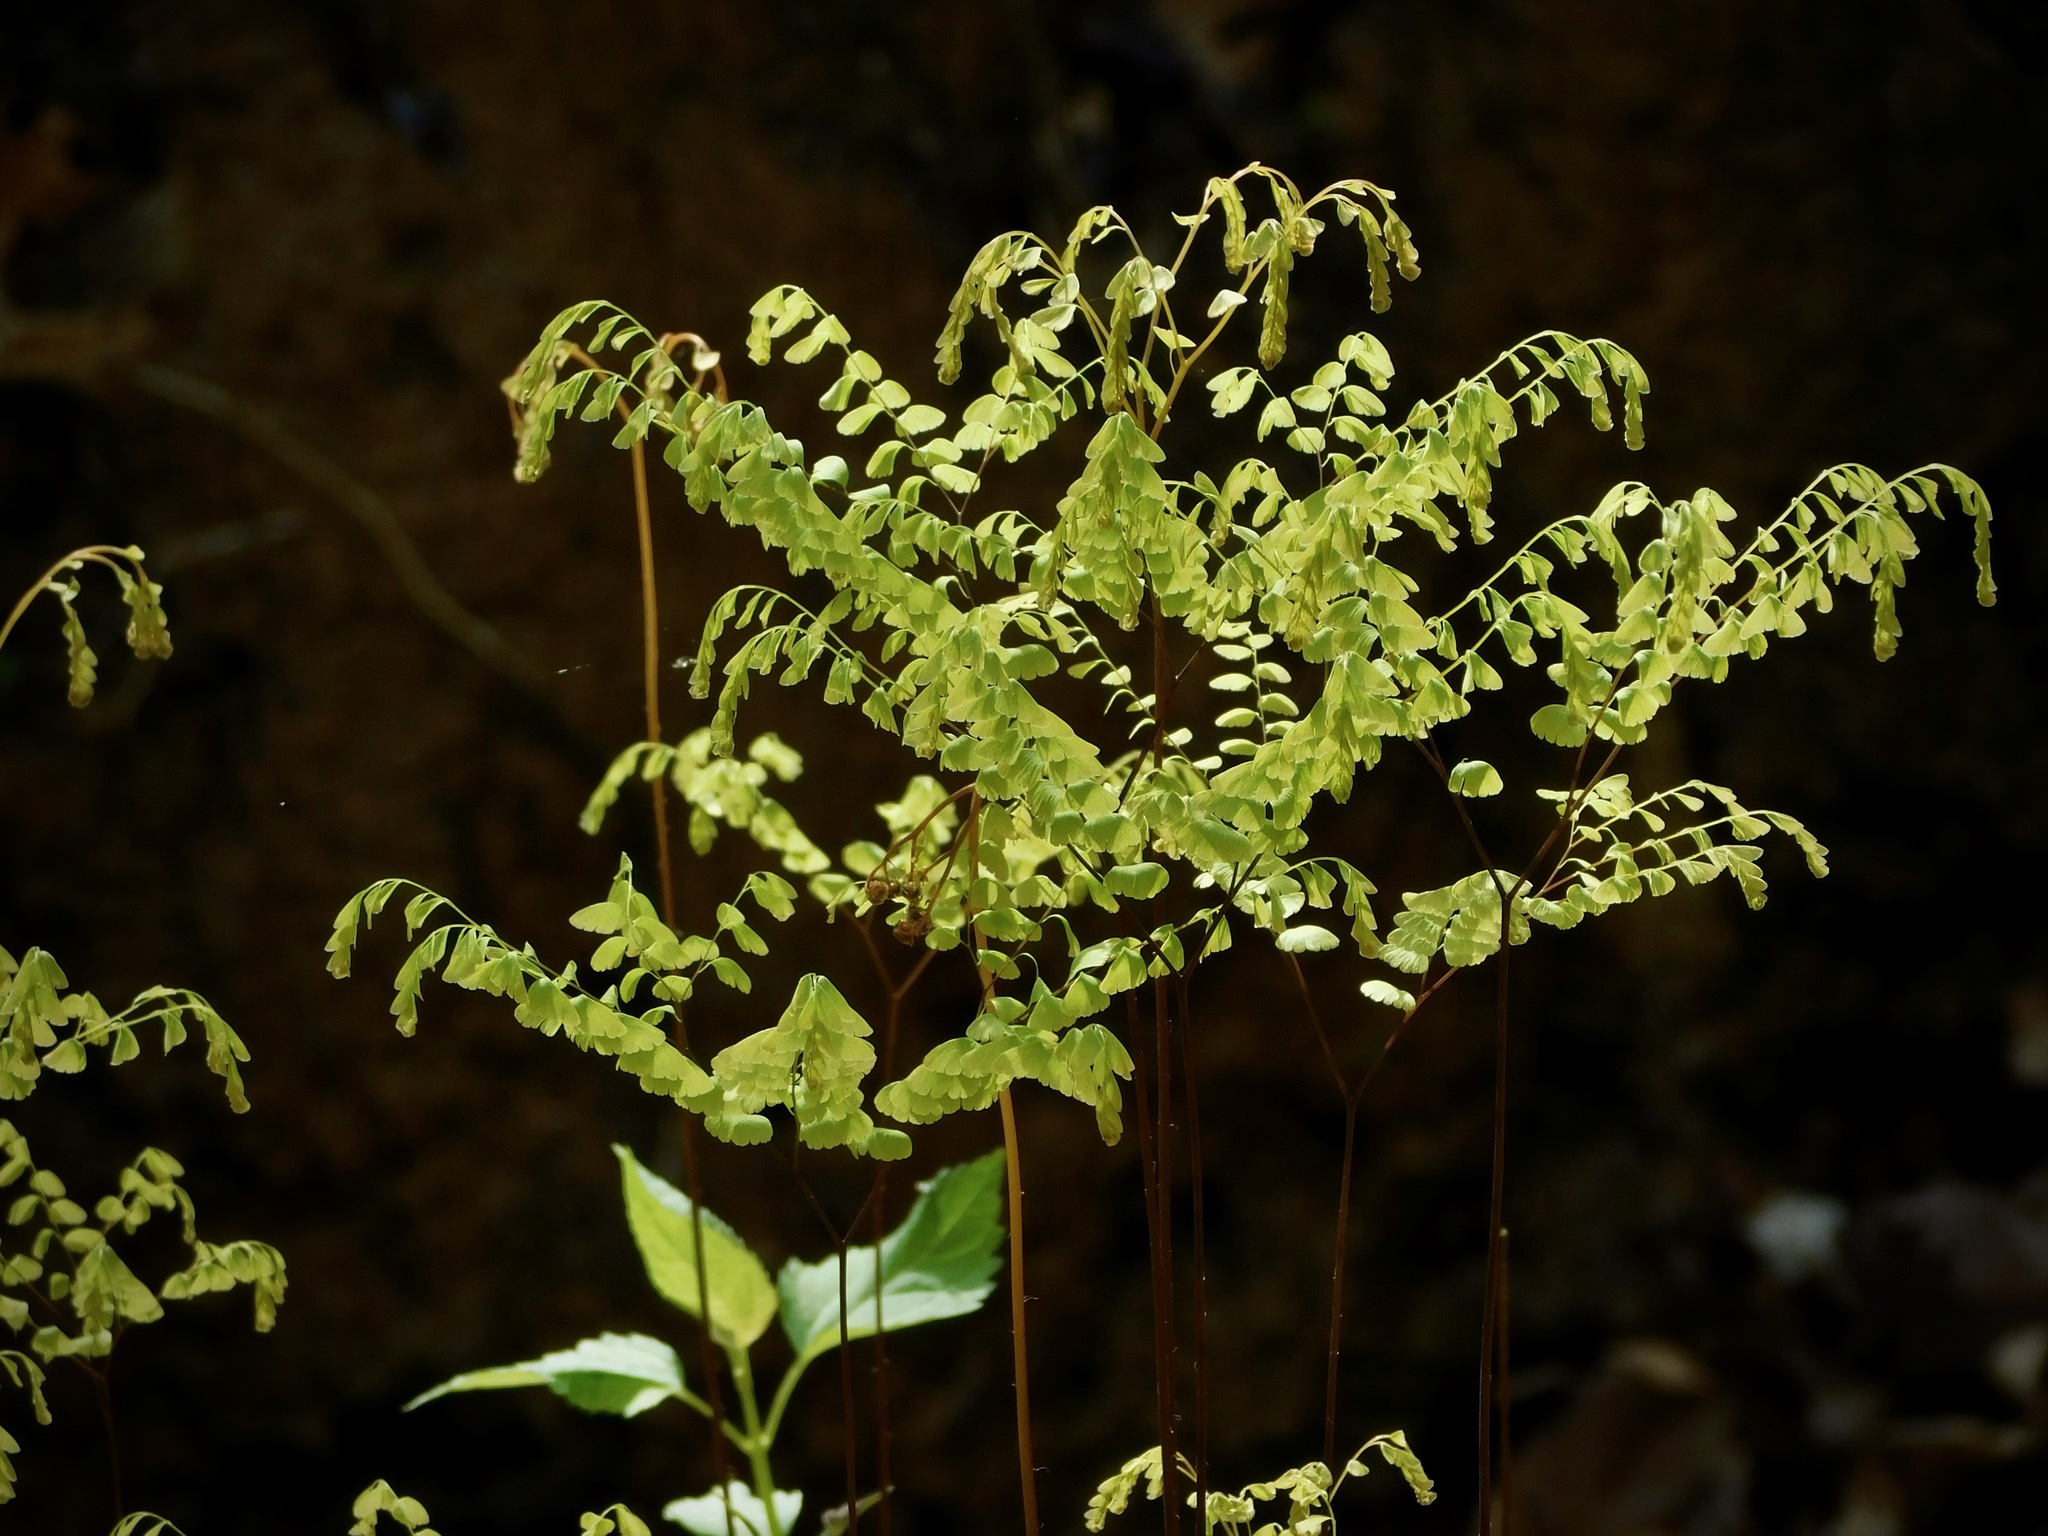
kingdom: Plantae
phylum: Tracheophyta
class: Polypodiopsida
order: Polypodiales
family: Pteridaceae
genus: Adiantum
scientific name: Adiantum pedatum
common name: Five-finger fern
